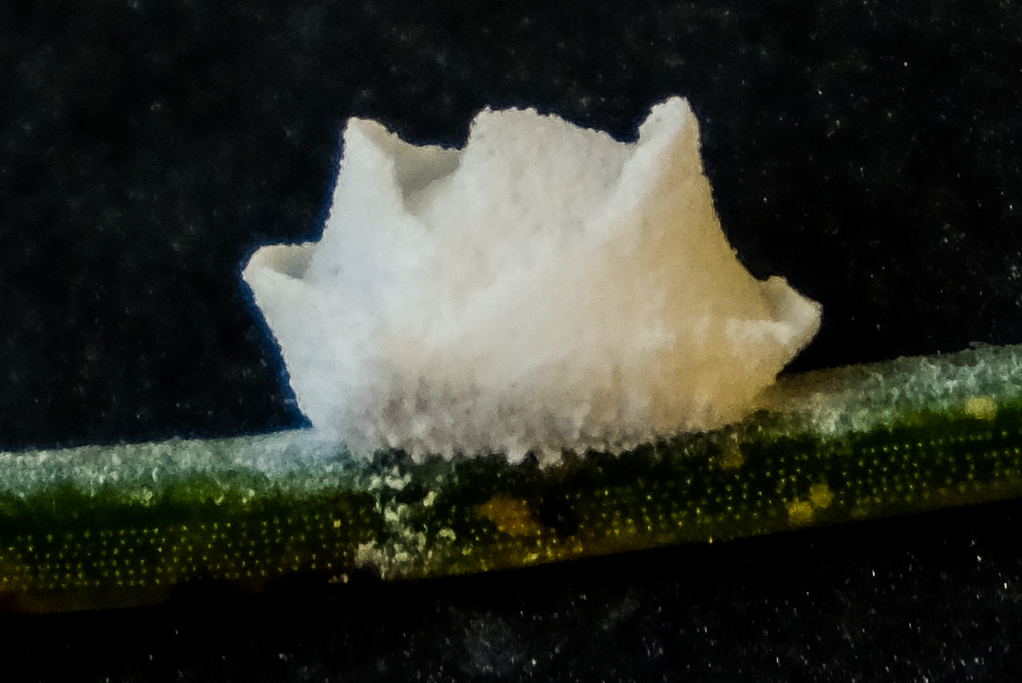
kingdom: Animalia
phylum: Arthropoda
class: Insecta
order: Lepidoptera
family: Epipyropidae
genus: Fulgoraecia
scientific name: Fulgoraecia exigua
